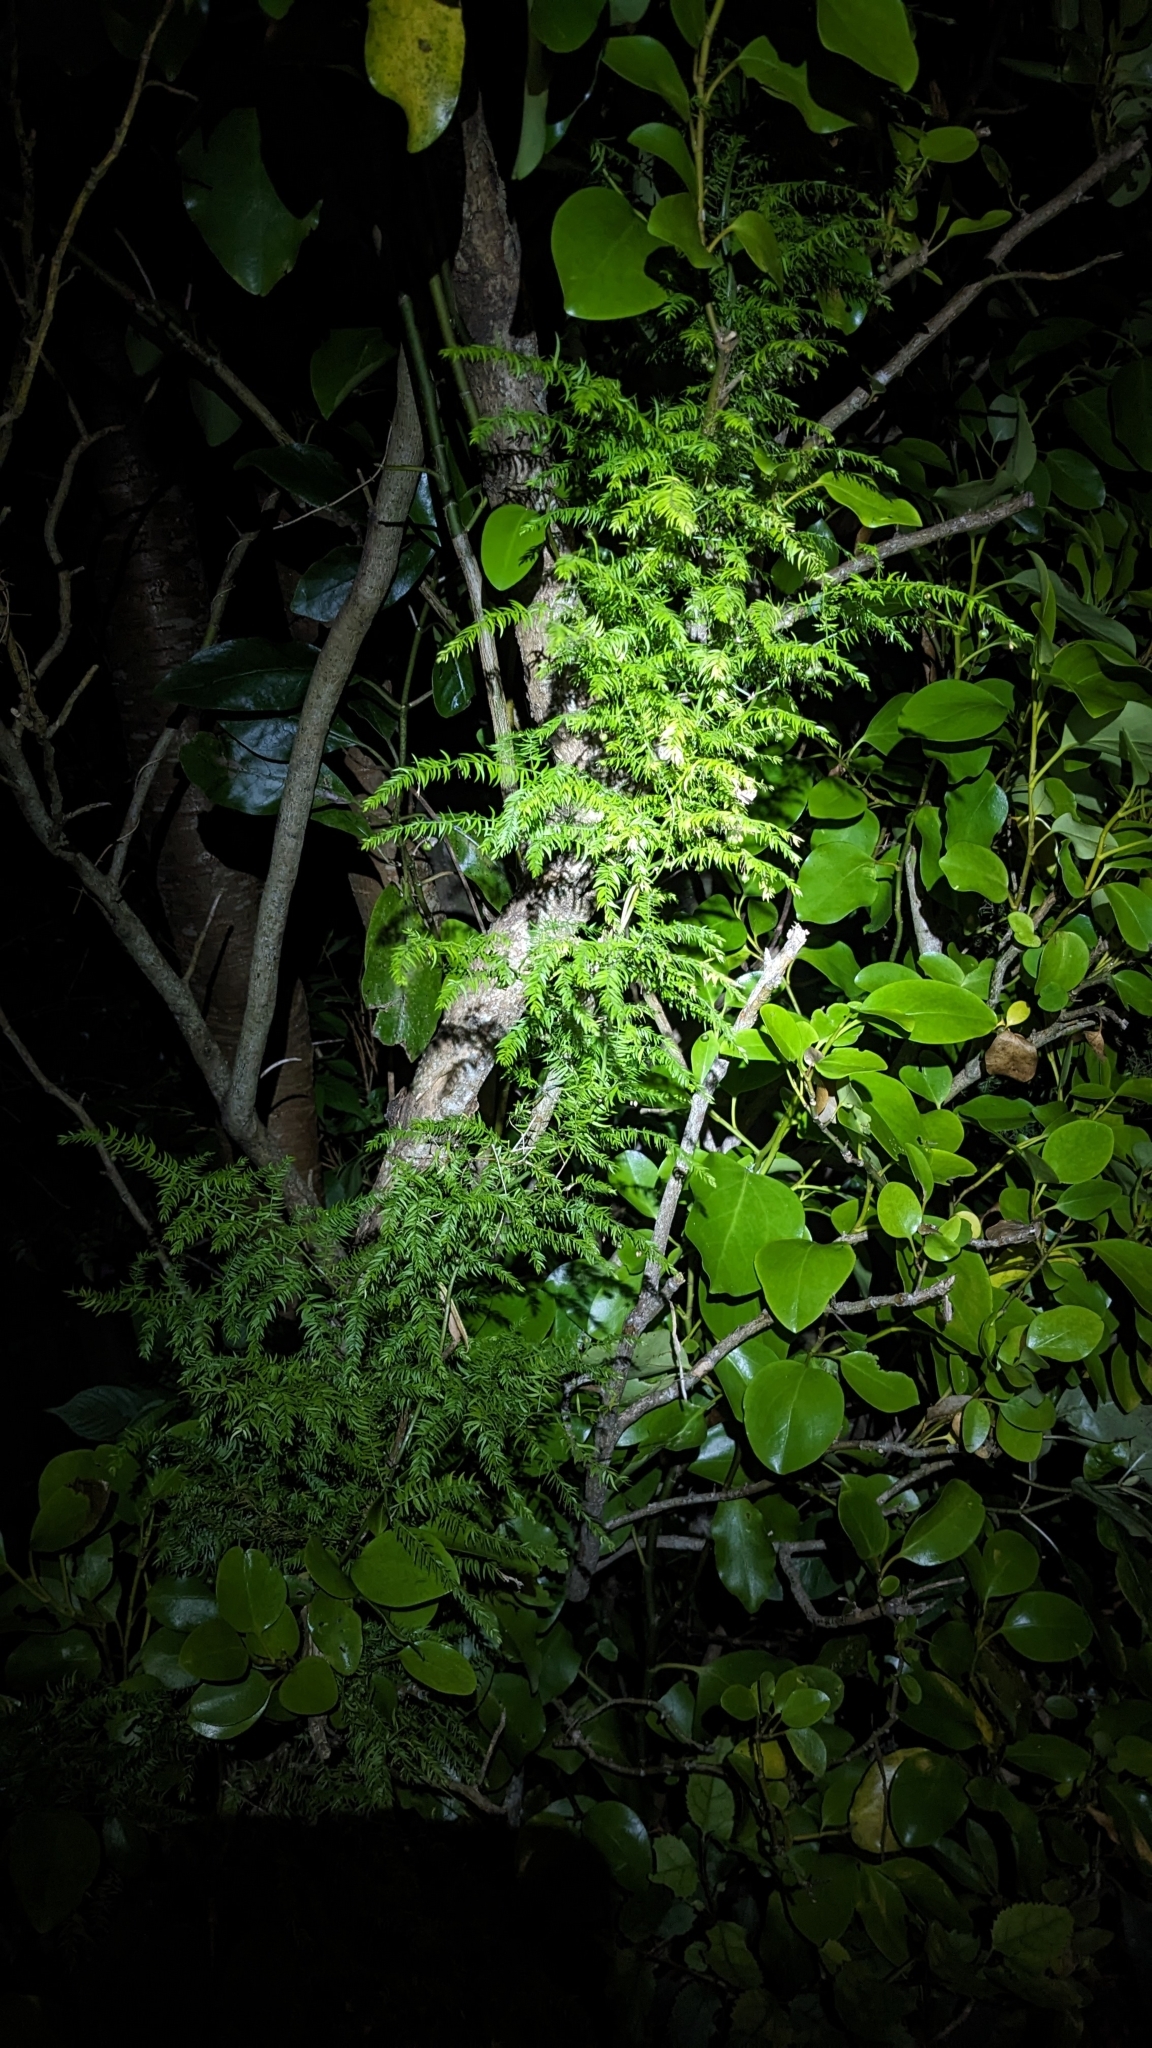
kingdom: Plantae
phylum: Tracheophyta
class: Liliopsida
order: Asparagales
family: Asparagaceae
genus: Asparagus
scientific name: Asparagus scandens
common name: Asparagus-fern
